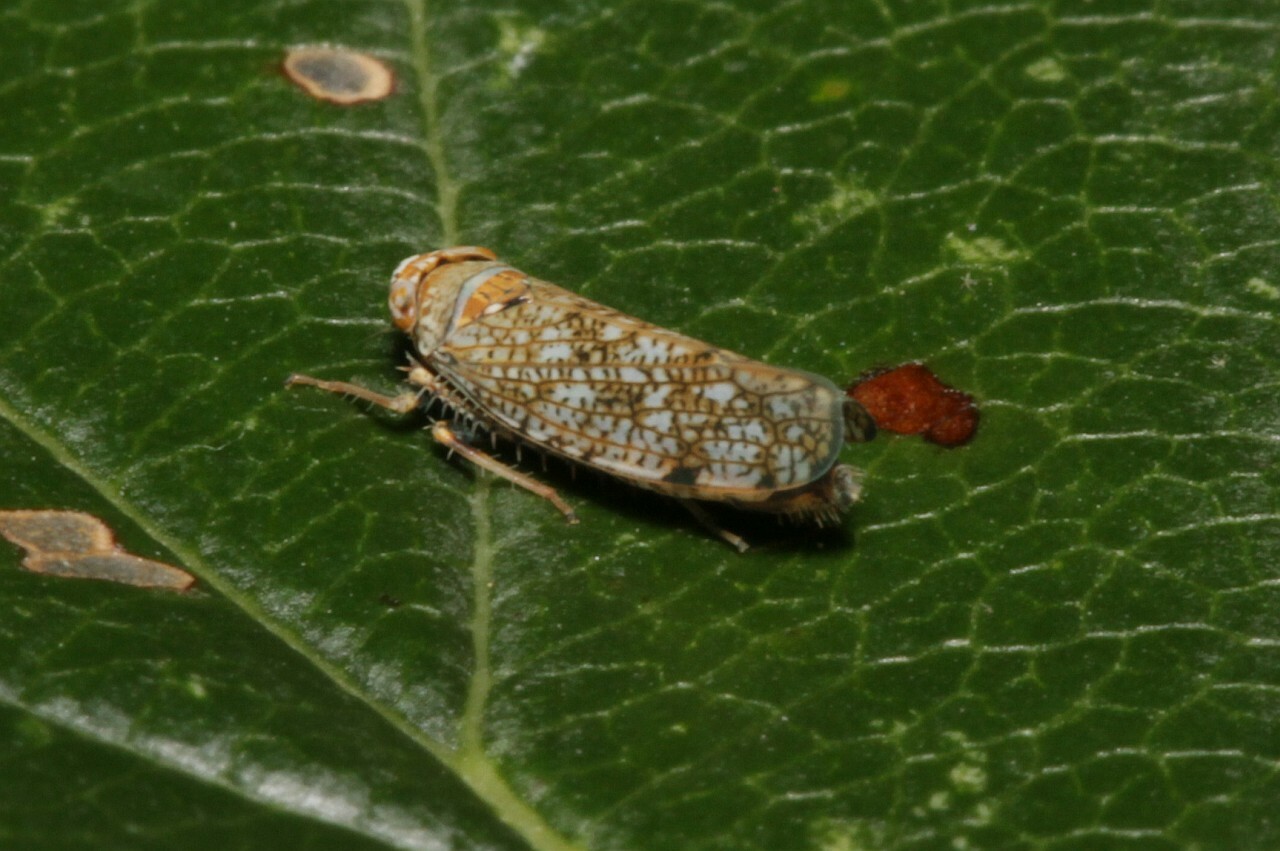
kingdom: Animalia
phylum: Arthropoda
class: Insecta
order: Hemiptera
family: Cicadellidae
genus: Orientus
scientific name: Orientus ishidae
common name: Japanese leafhopper
